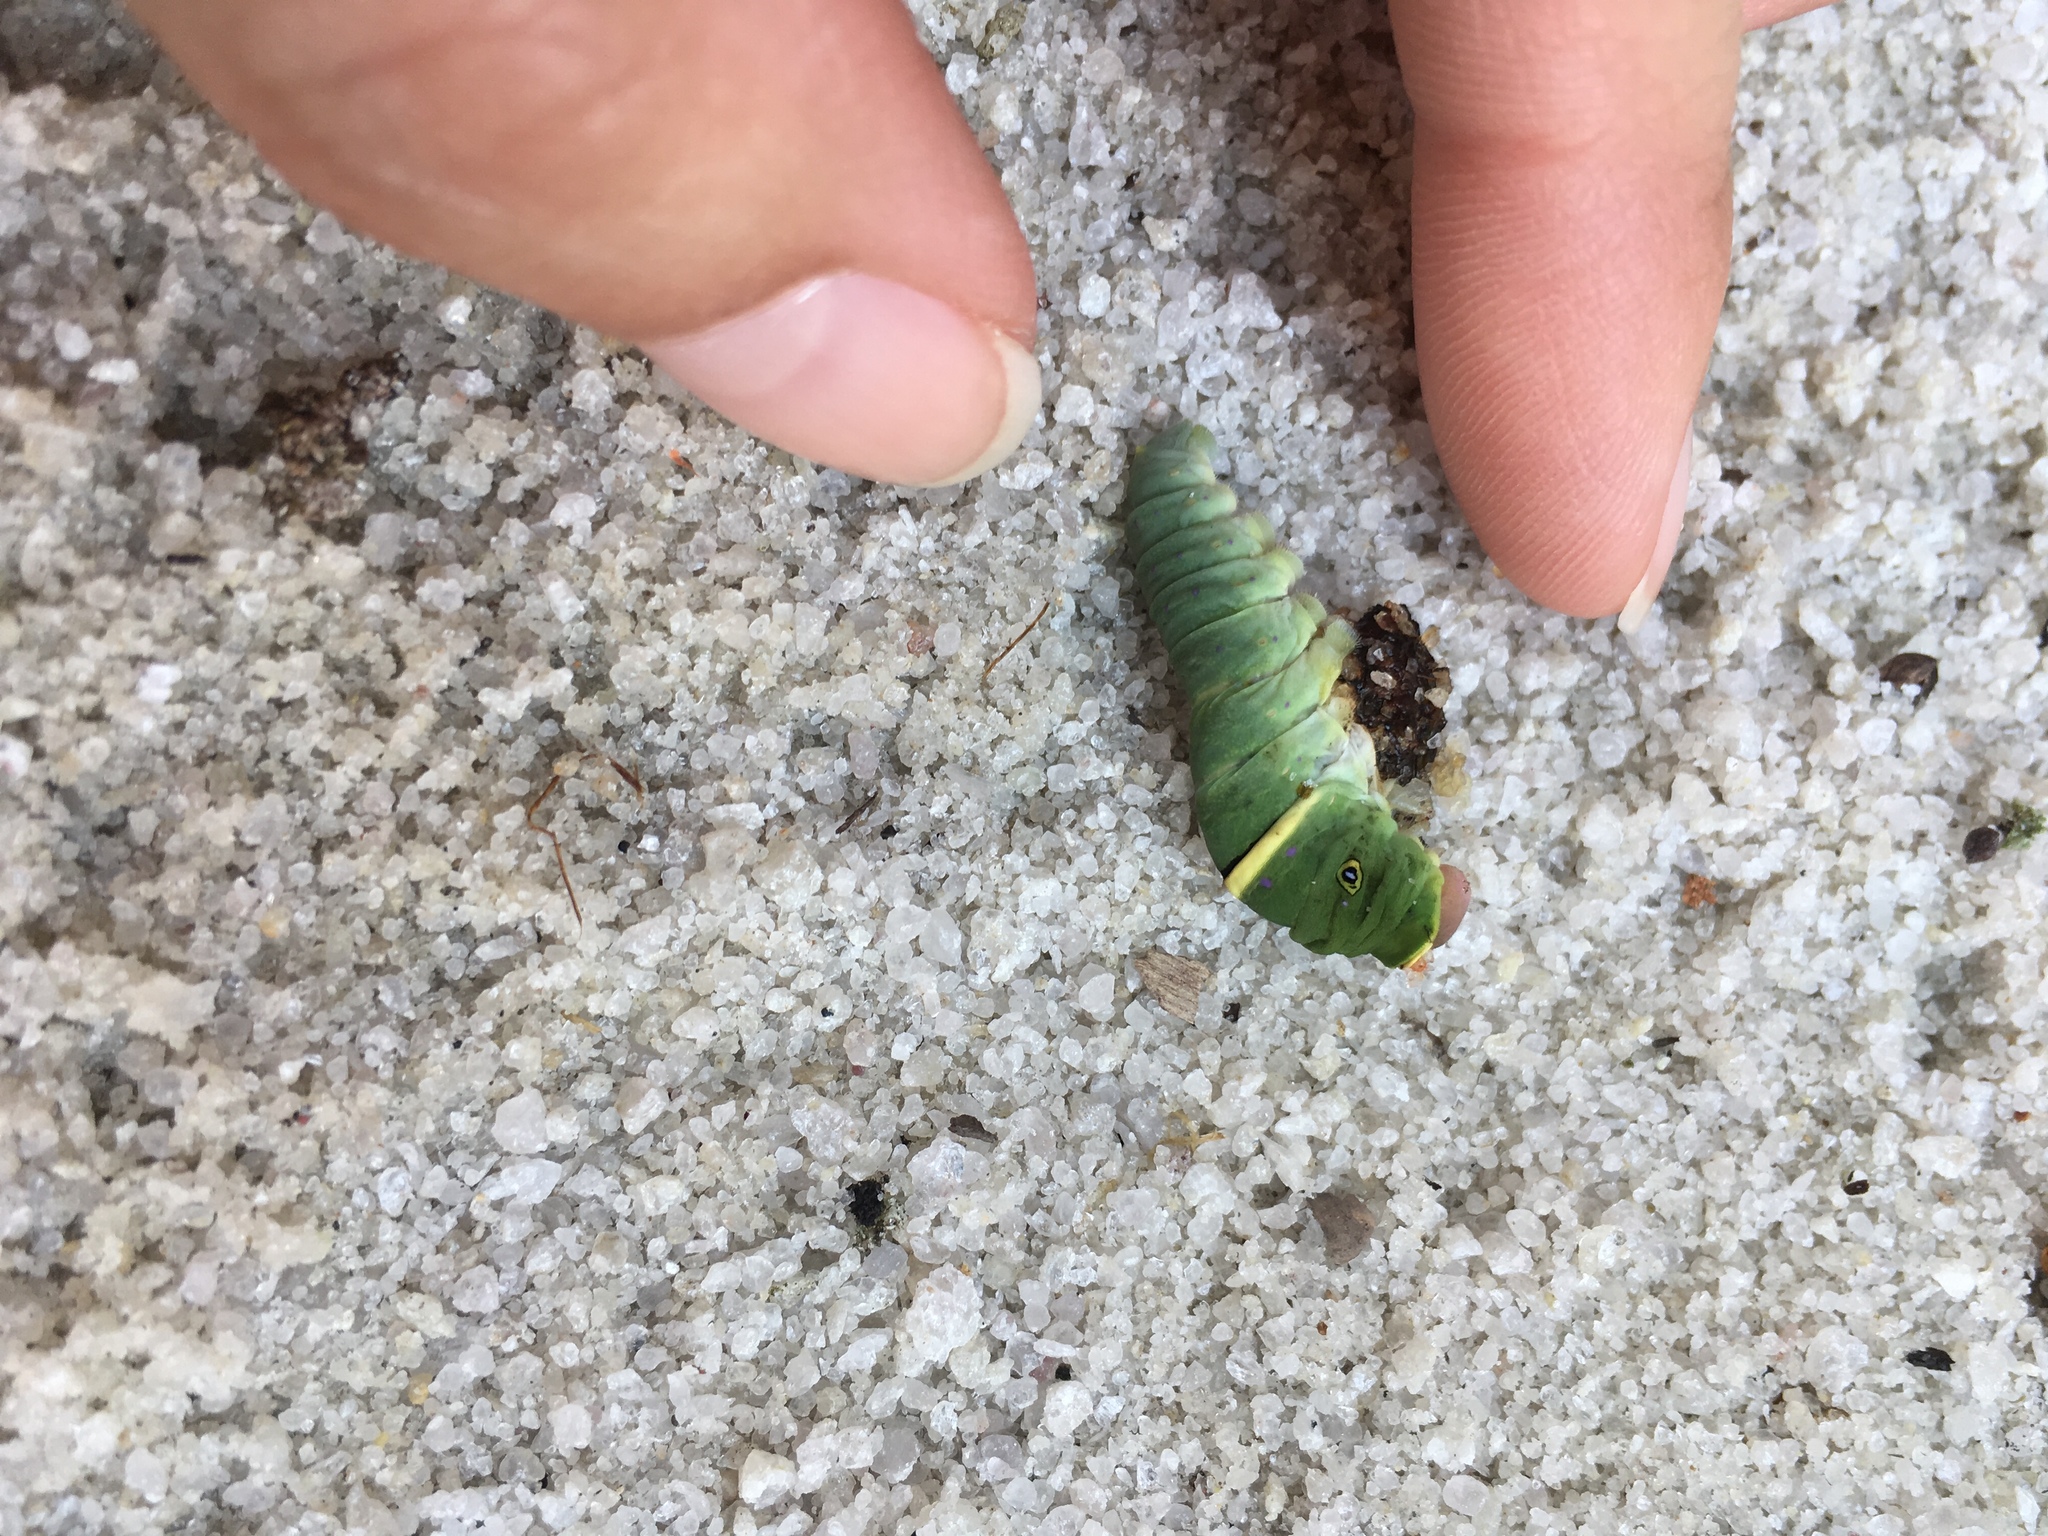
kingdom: Animalia
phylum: Arthropoda
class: Insecta
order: Lepidoptera
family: Papilionidae
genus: Papilio
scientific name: Papilio glaucus
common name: Tiger swallowtail
